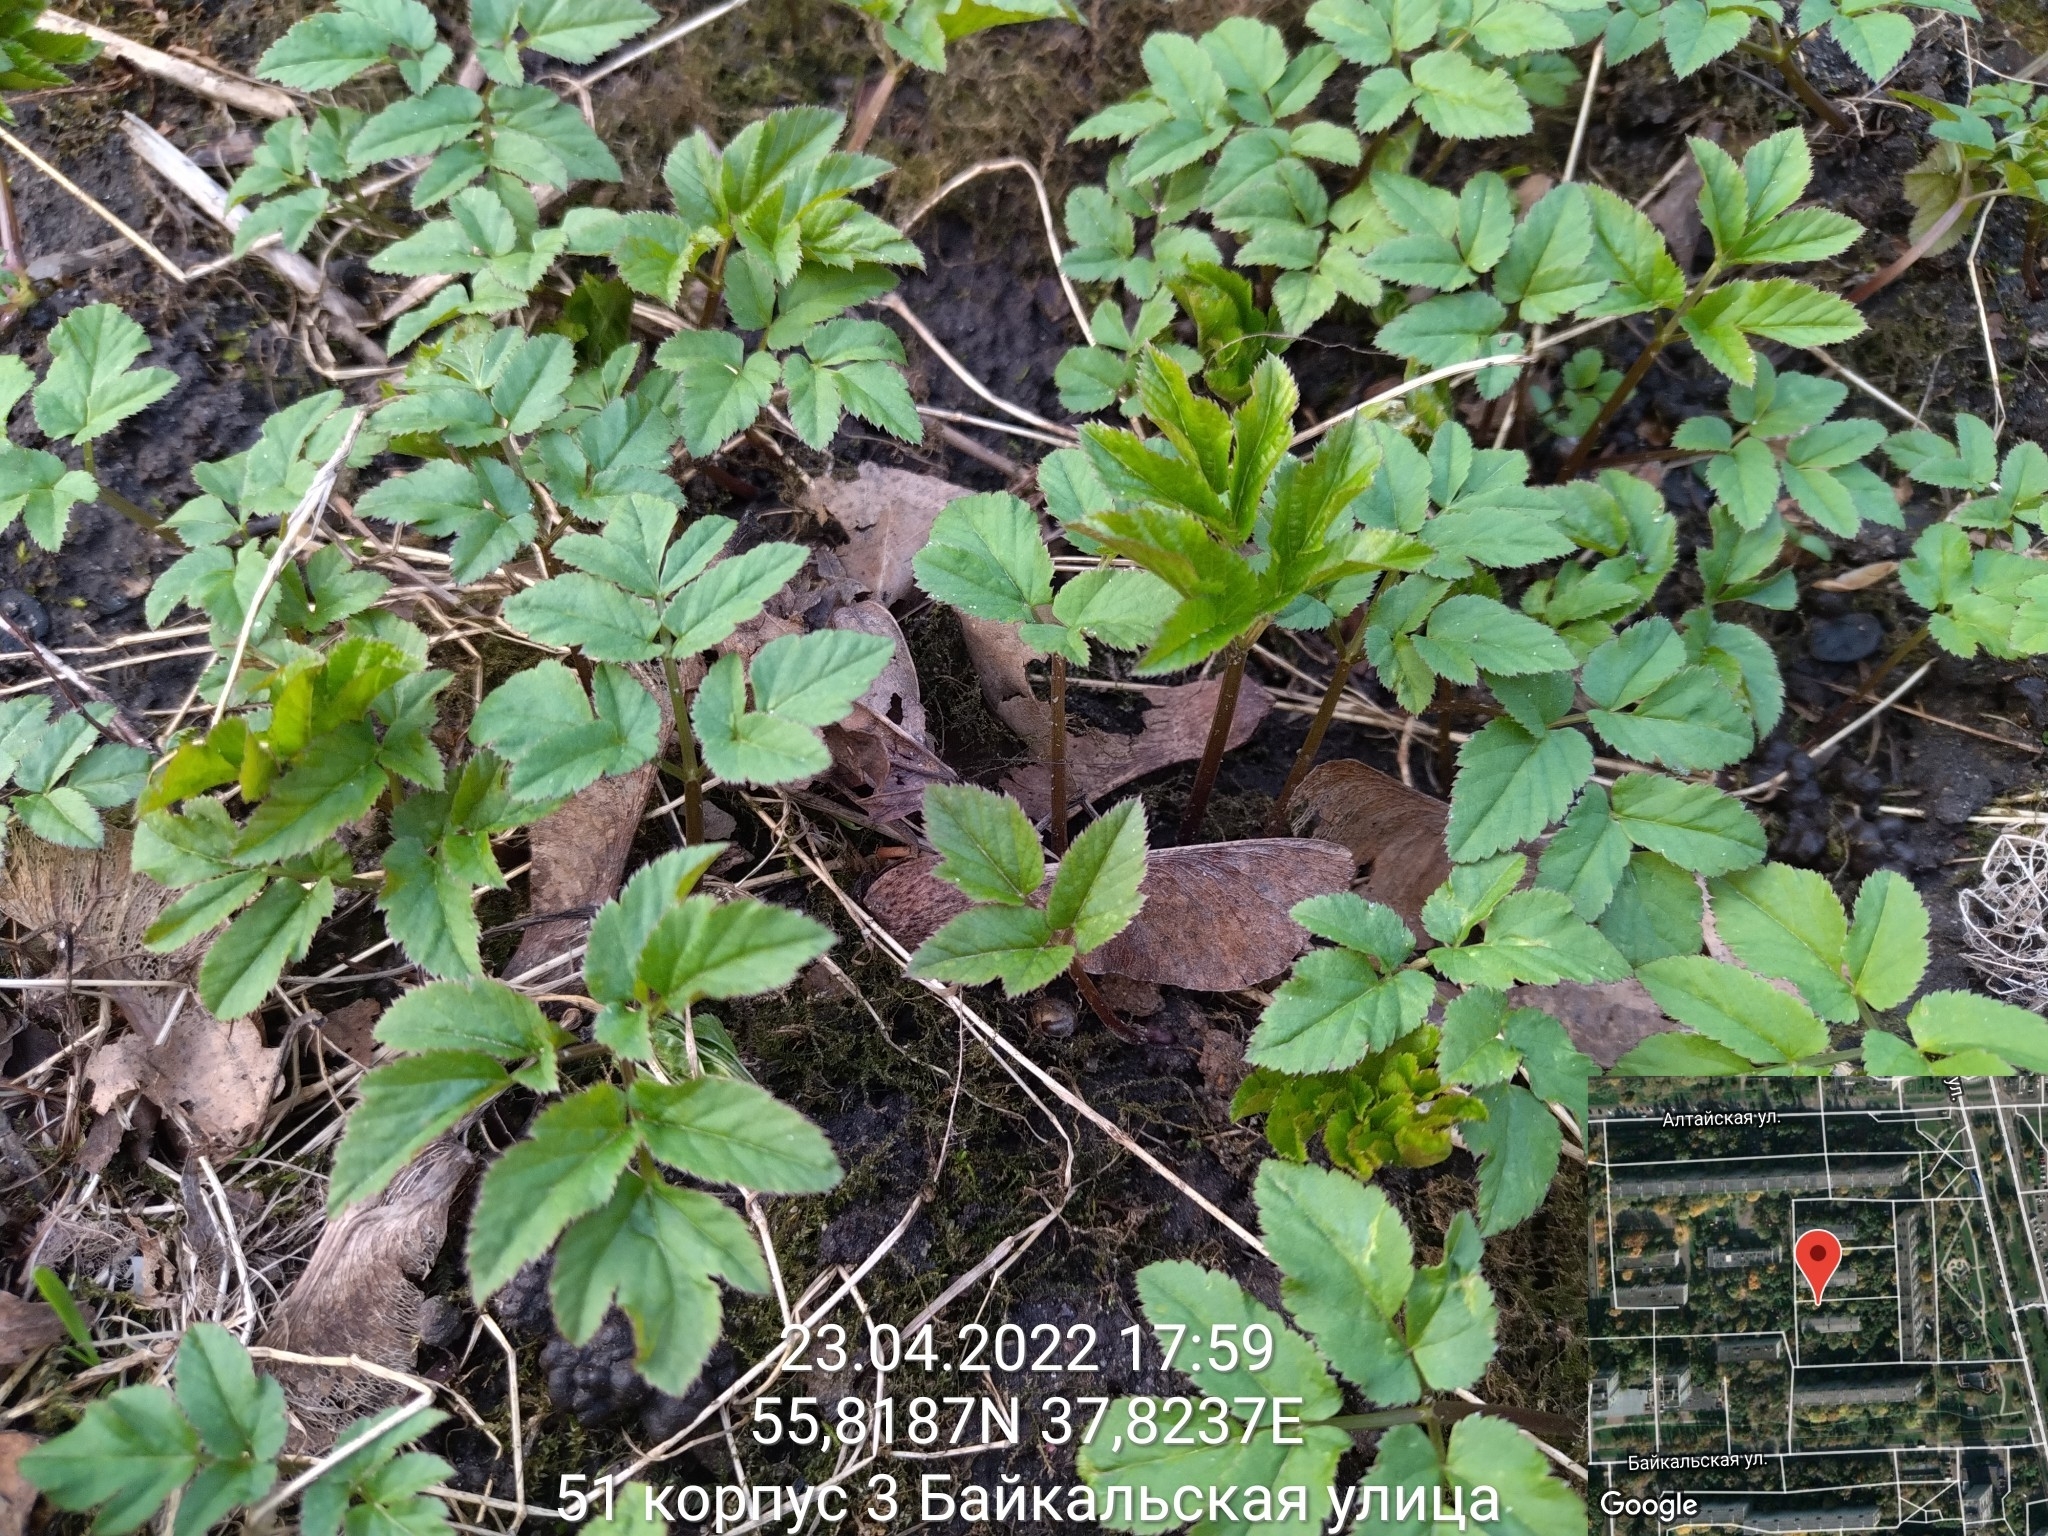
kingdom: Plantae
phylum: Tracheophyta
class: Magnoliopsida
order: Apiales
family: Apiaceae
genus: Aegopodium
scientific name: Aegopodium podagraria
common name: Ground-elder
